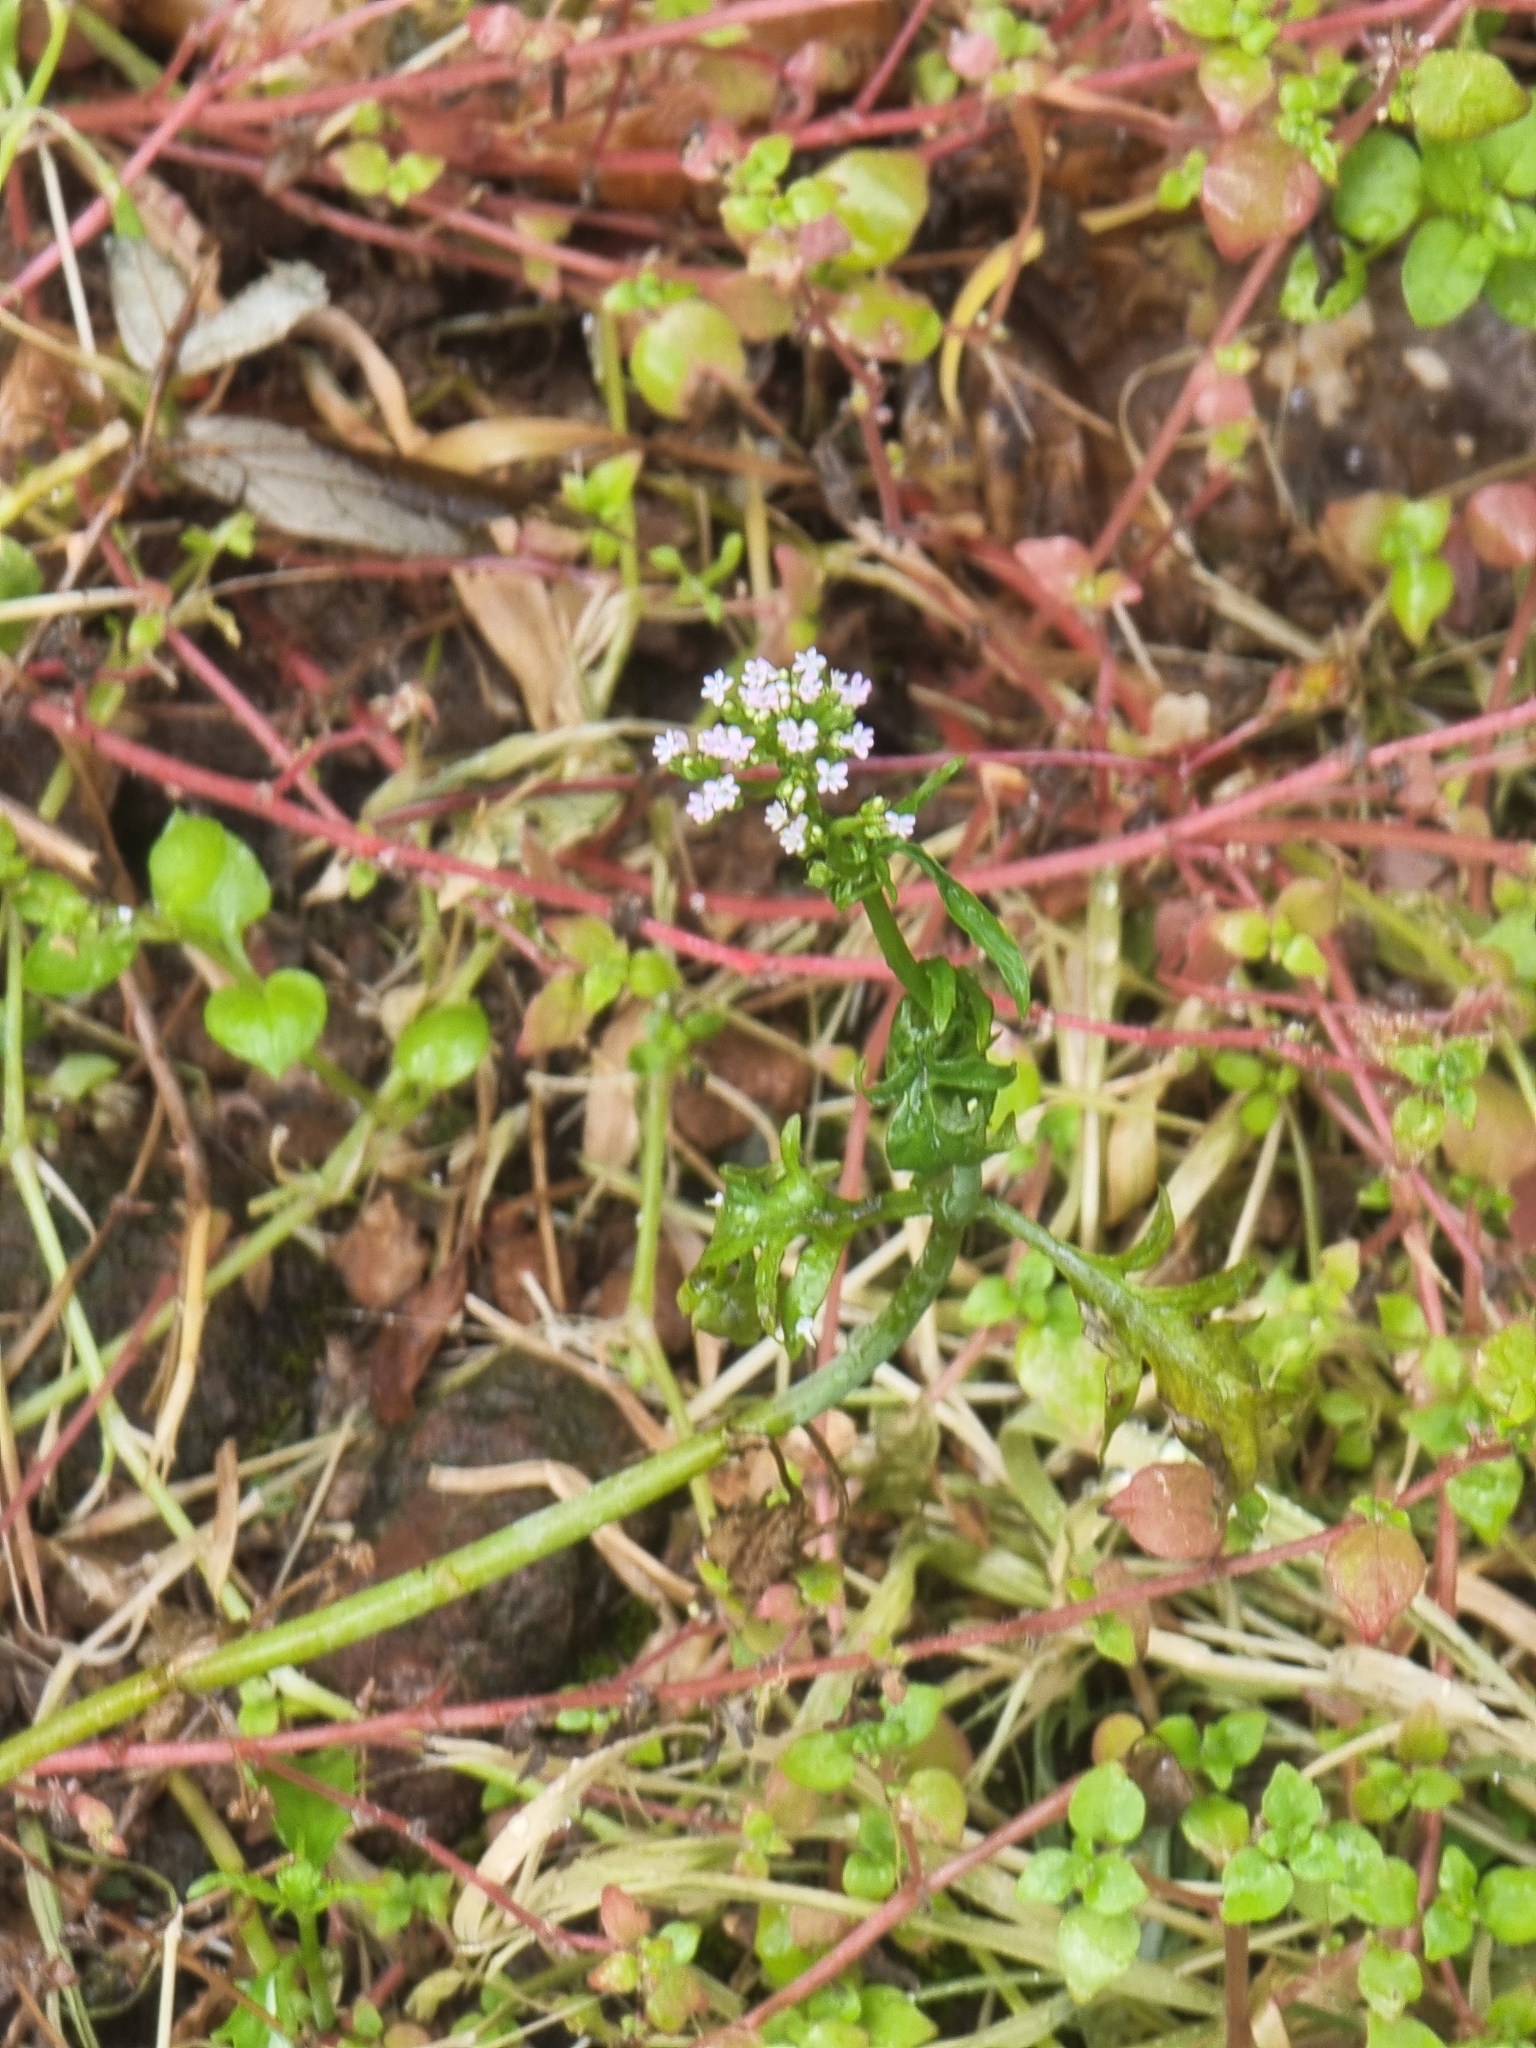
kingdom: Plantae
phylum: Tracheophyta
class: Magnoliopsida
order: Dipsacales
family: Caprifoliaceae
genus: Centranthus
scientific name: Centranthus calcitrapae
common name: Annual valerian
